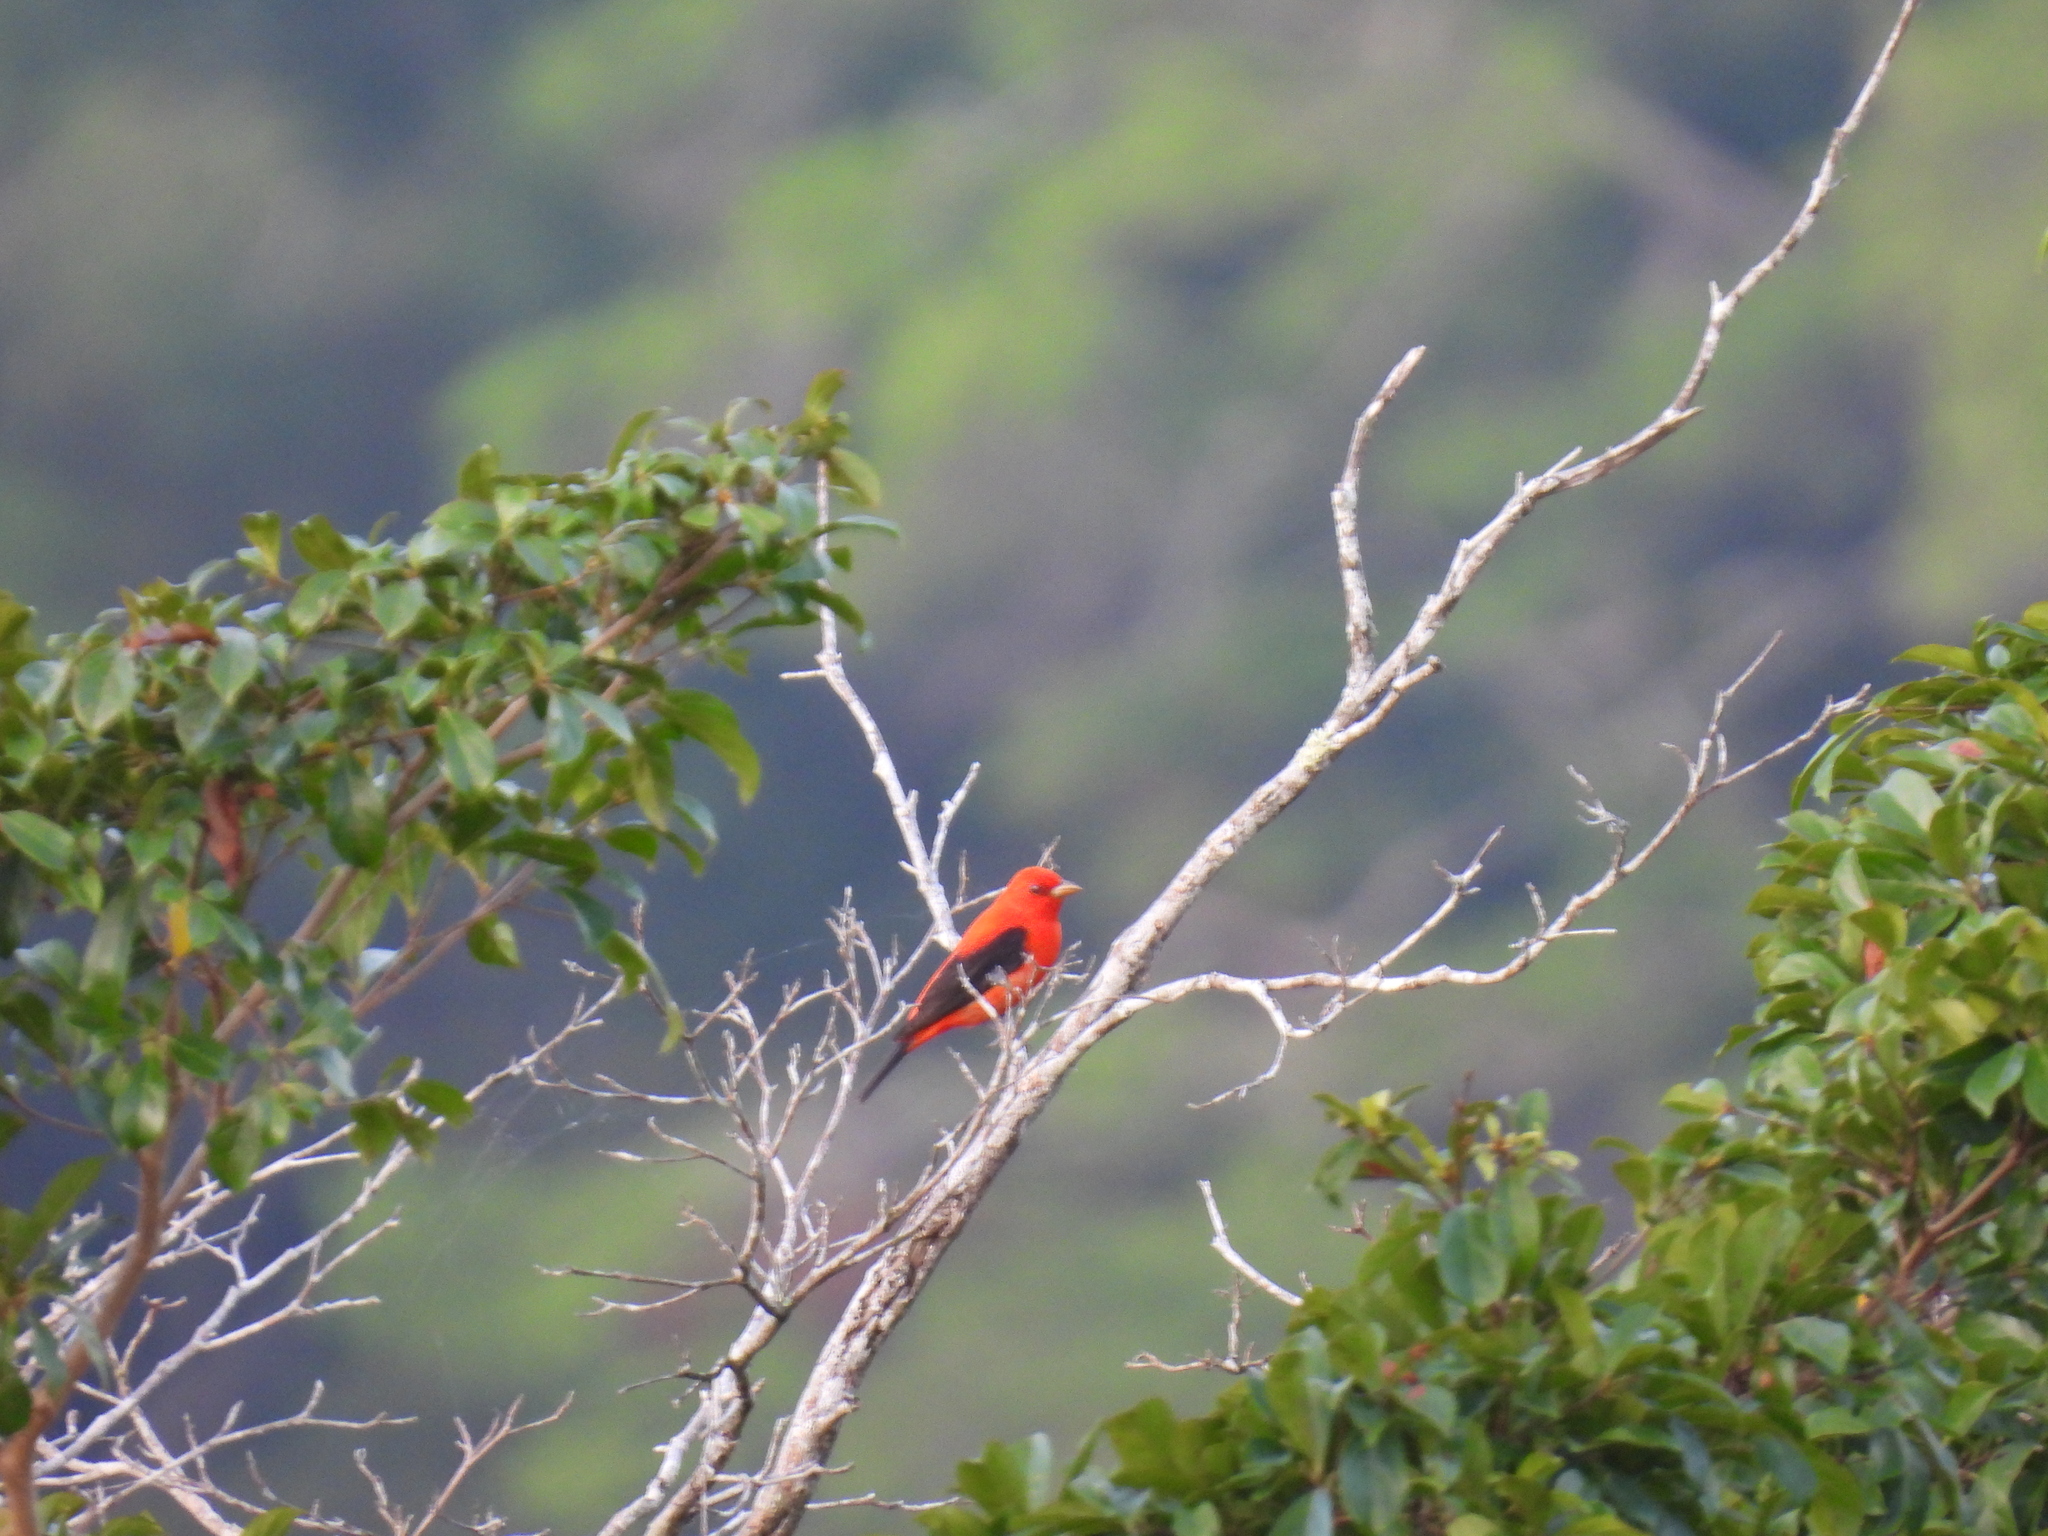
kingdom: Animalia
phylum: Chordata
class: Aves
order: Passeriformes
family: Cardinalidae
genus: Piranga
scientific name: Piranga olivacea
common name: Scarlet tanager
